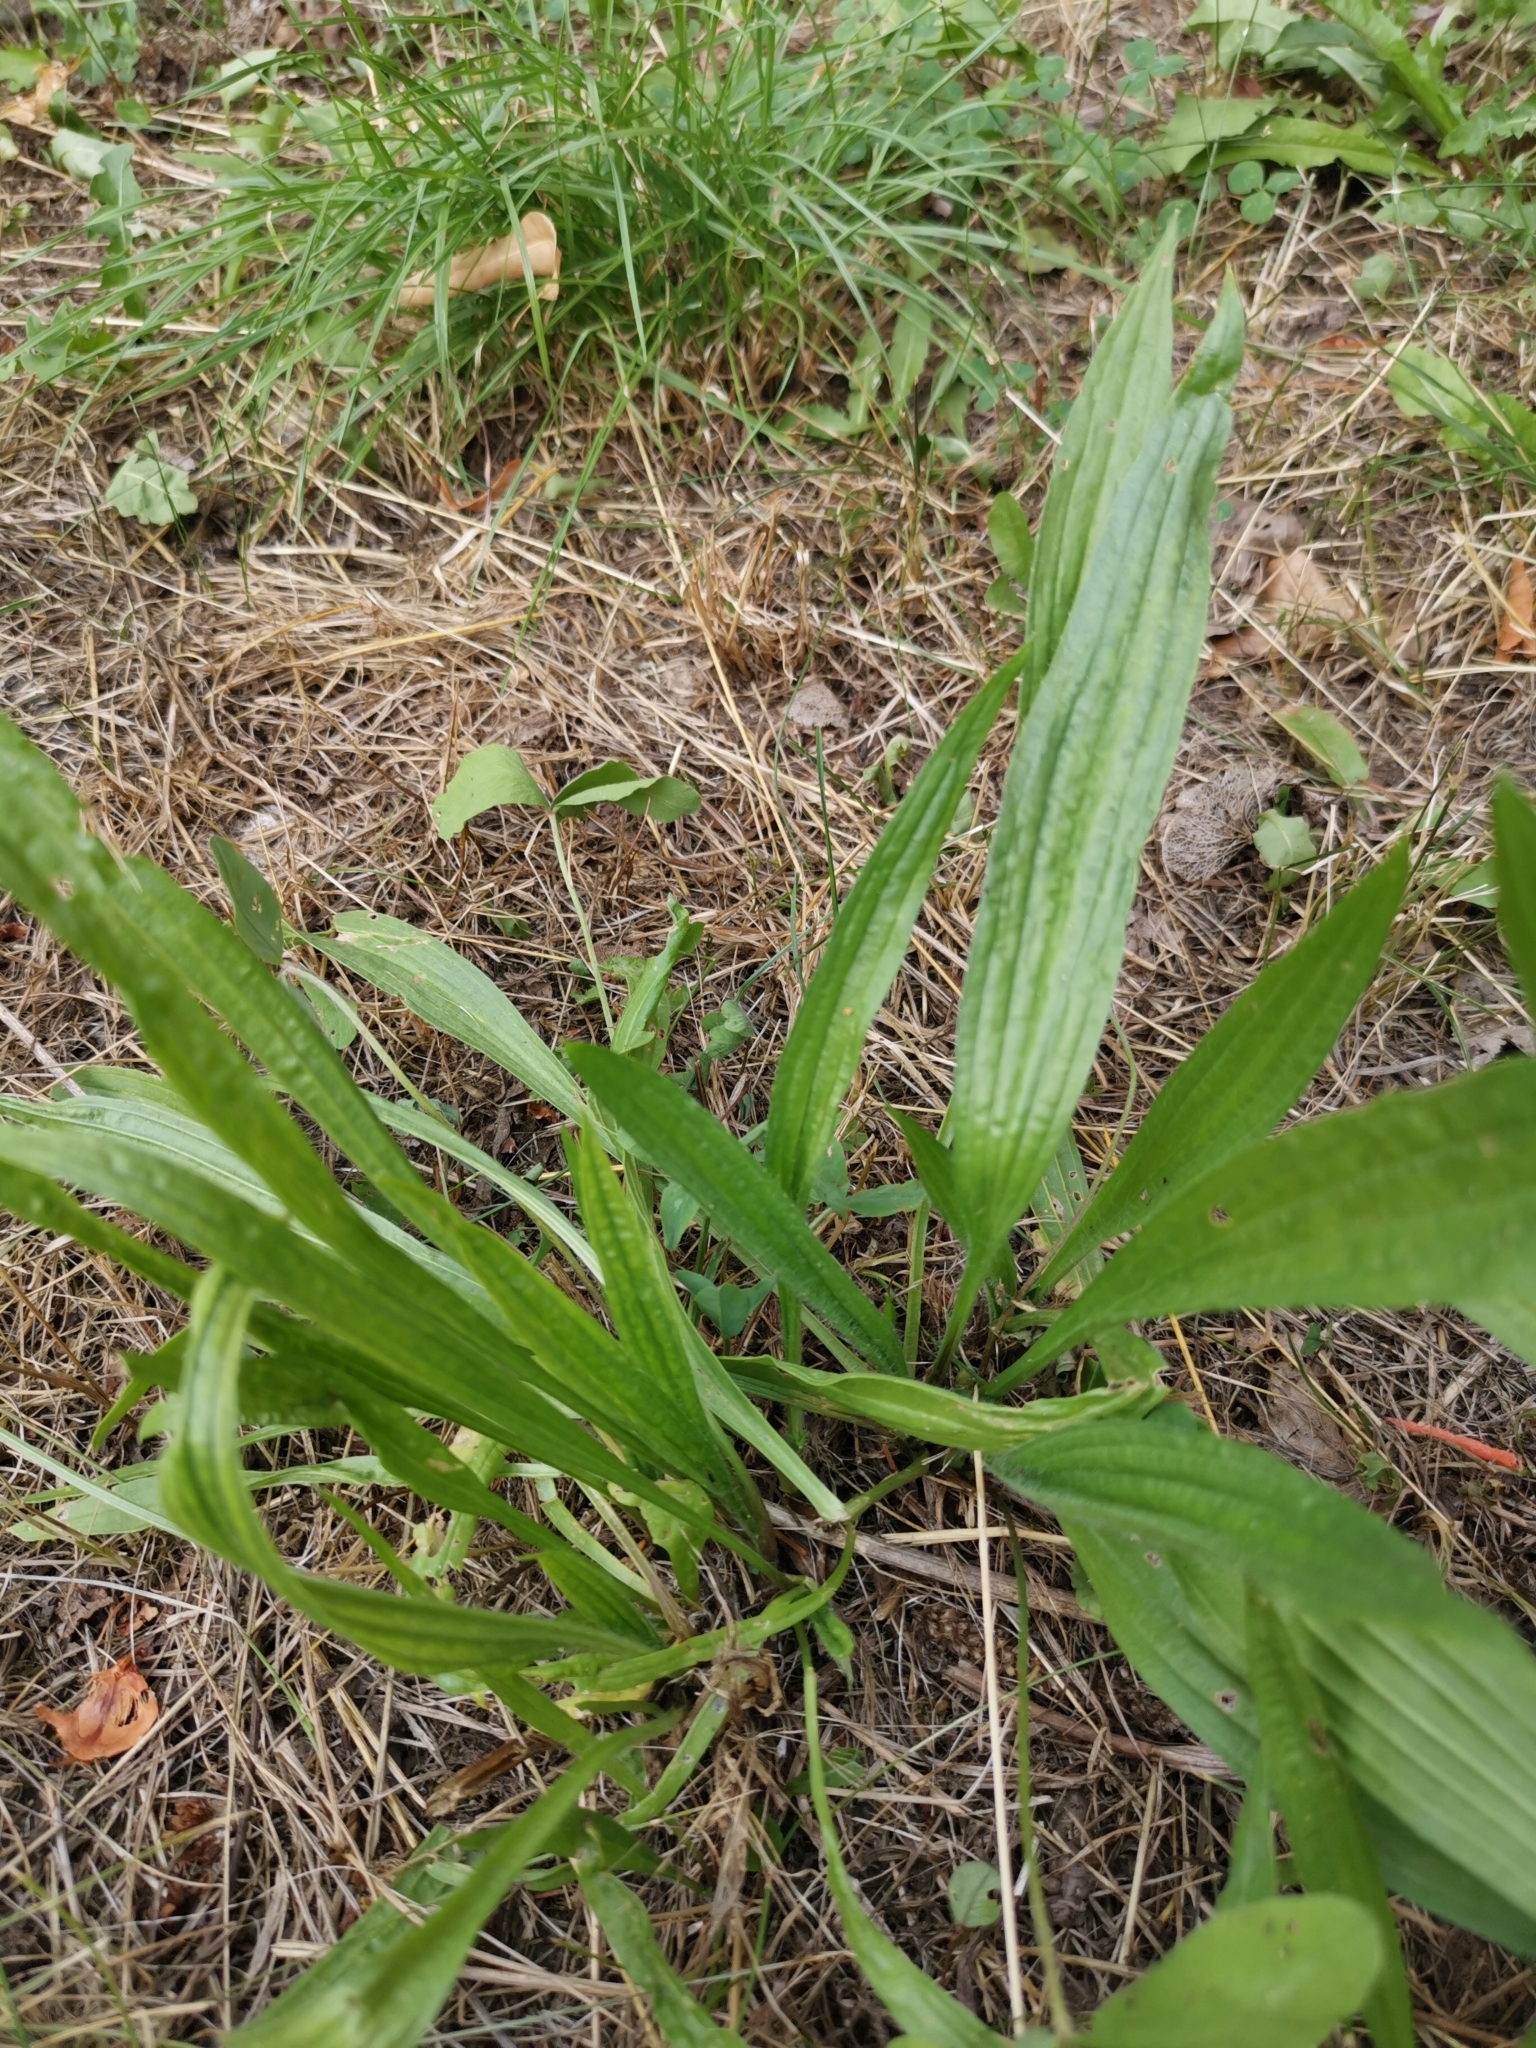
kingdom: Plantae
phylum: Tracheophyta
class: Magnoliopsida
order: Lamiales
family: Plantaginaceae
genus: Plantago
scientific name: Plantago lanceolata
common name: Ribwort plantain
